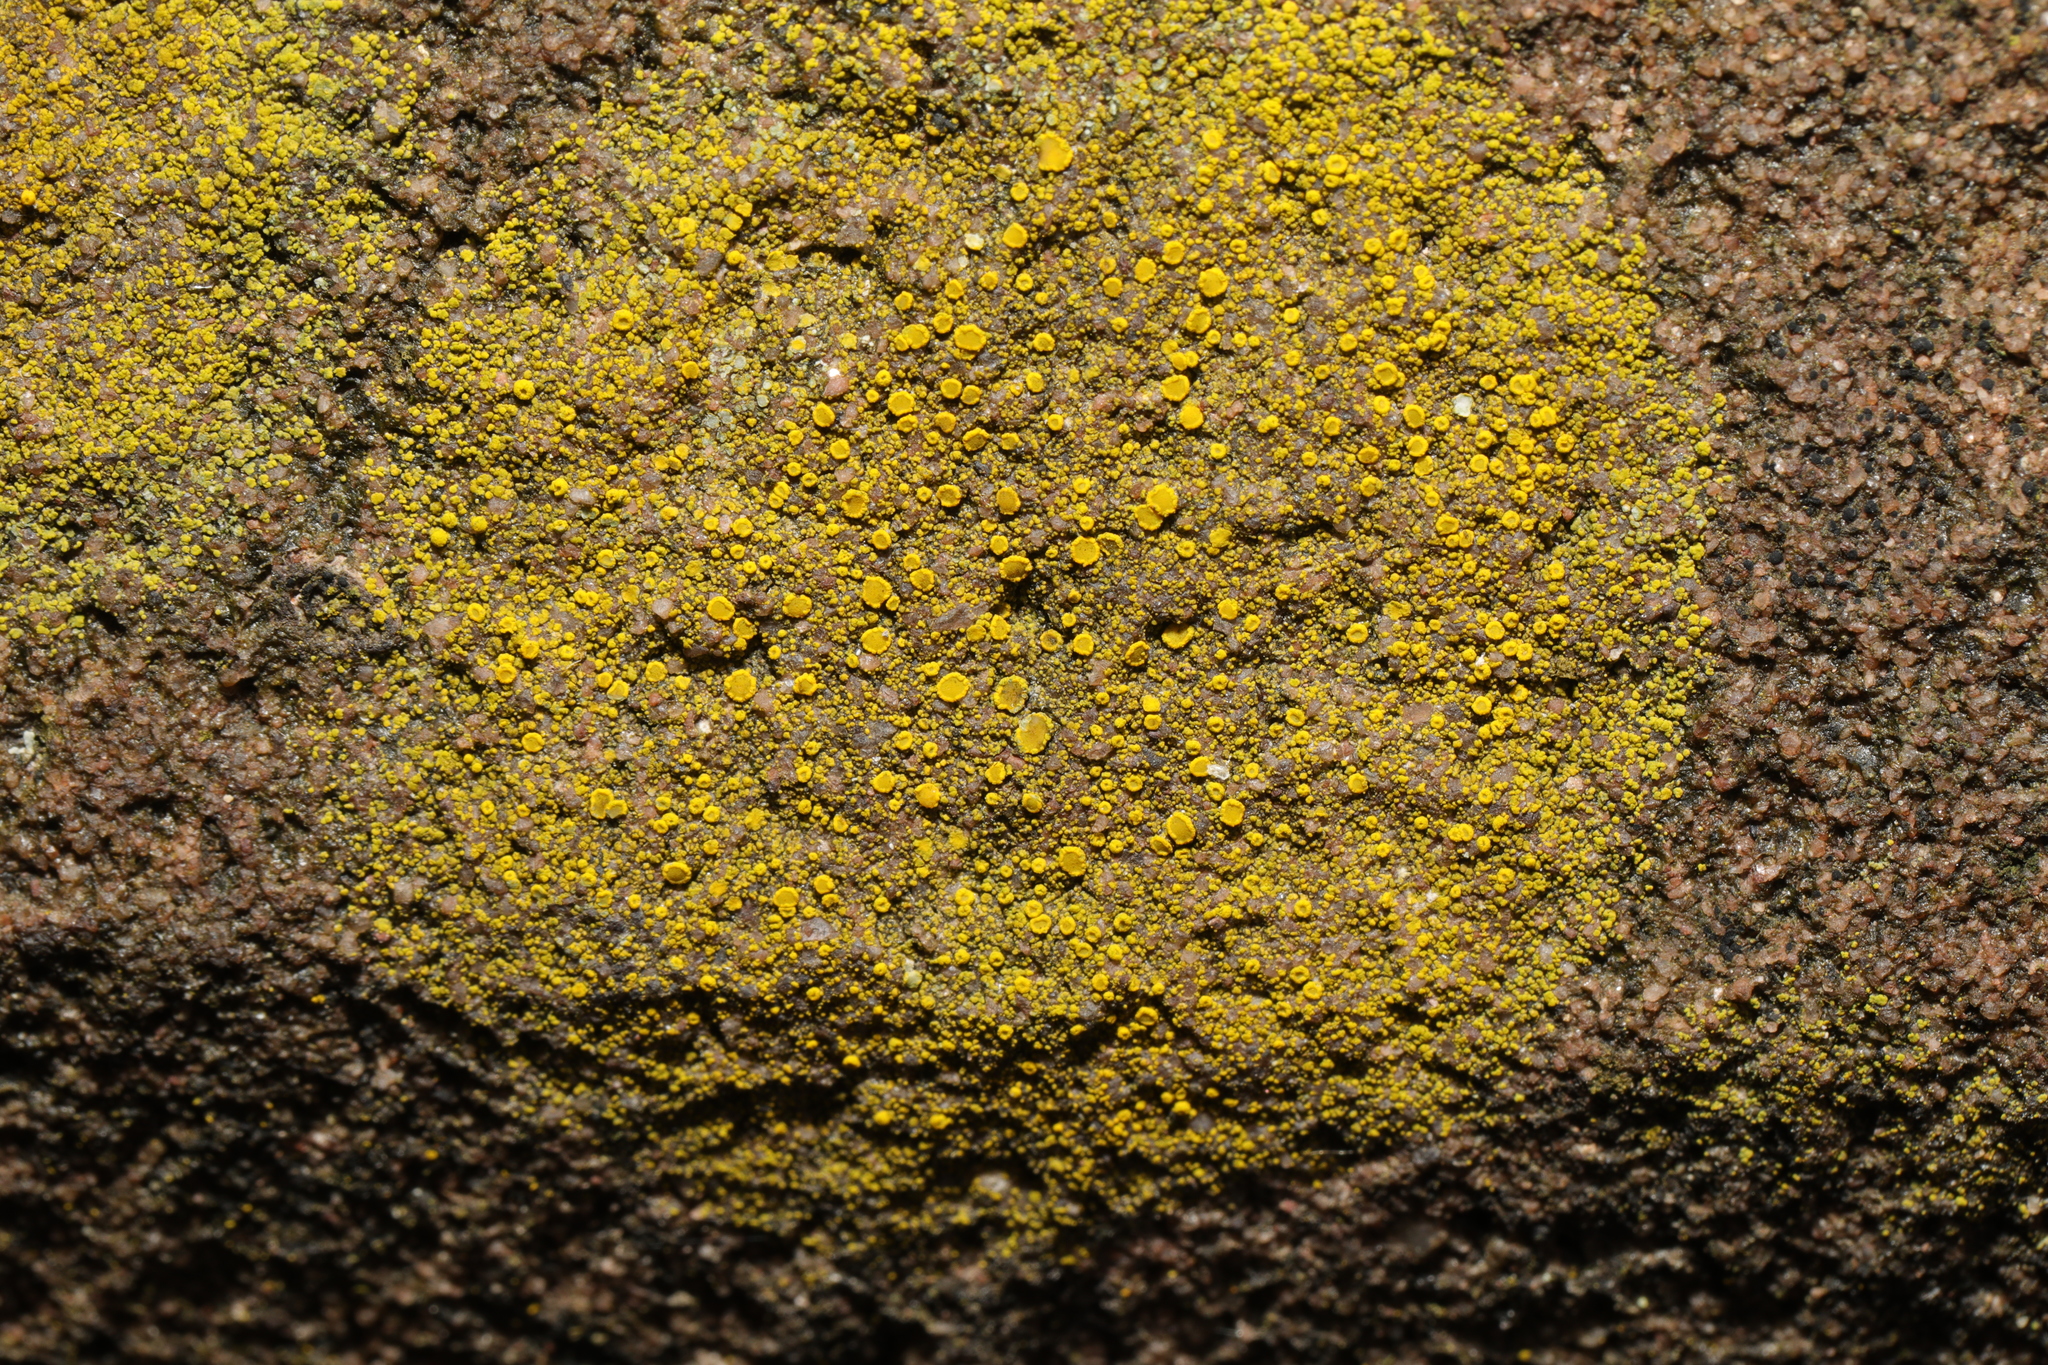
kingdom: Fungi
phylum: Ascomycota
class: Candelariomycetes
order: Candelariales
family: Candelariaceae
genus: Candelariella
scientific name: Candelariella vitellina
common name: Common goldspeck
